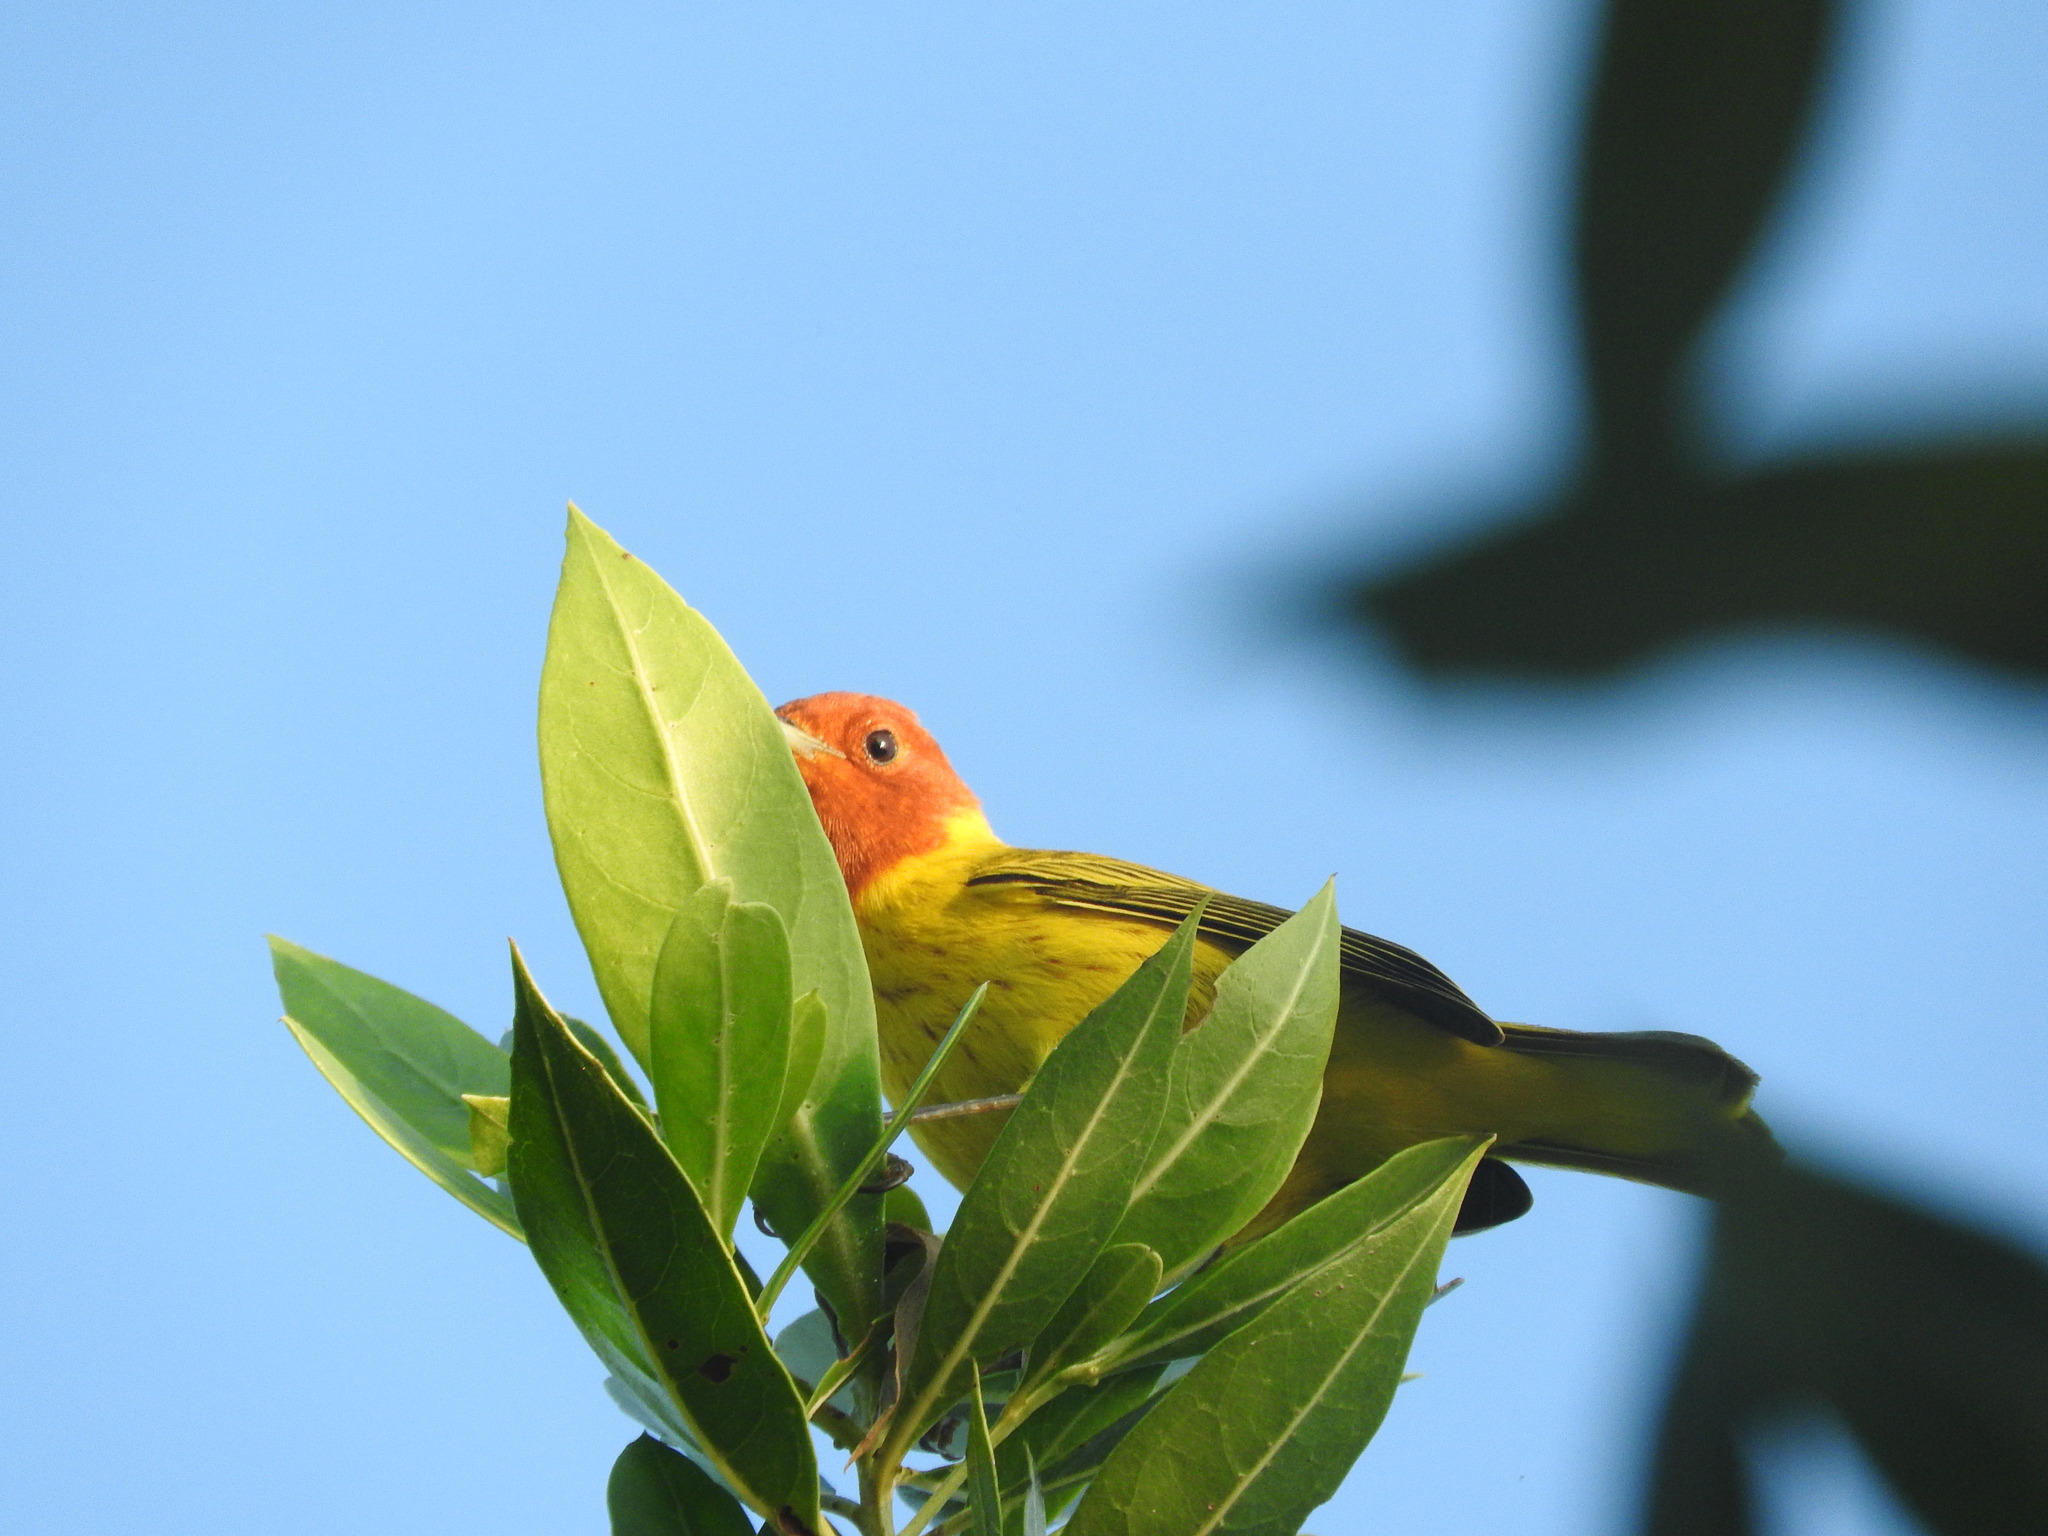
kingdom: Animalia
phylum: Chordata
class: Aves
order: Passeriformes
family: Parulidae
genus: Setophaga
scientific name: Setophaga petechia
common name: Yellow warbler
